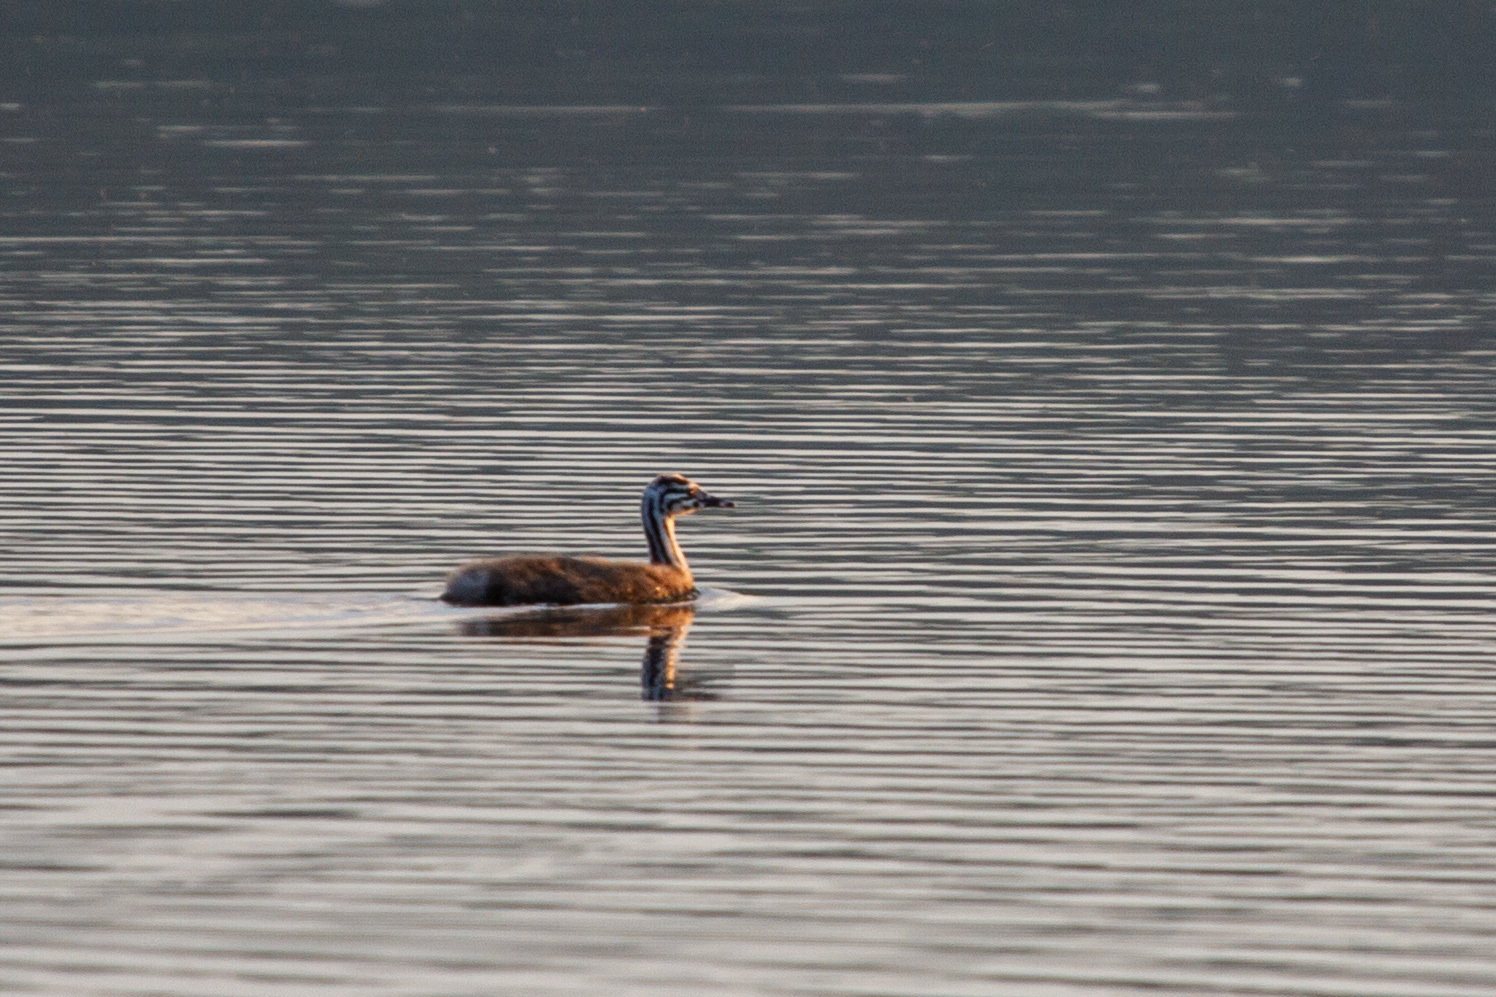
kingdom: Animalia
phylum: Chordata
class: Aves
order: Podicipediformes
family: Podicipedidae
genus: Podiceps
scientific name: Podiceps cristatus
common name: Great crested grebe
